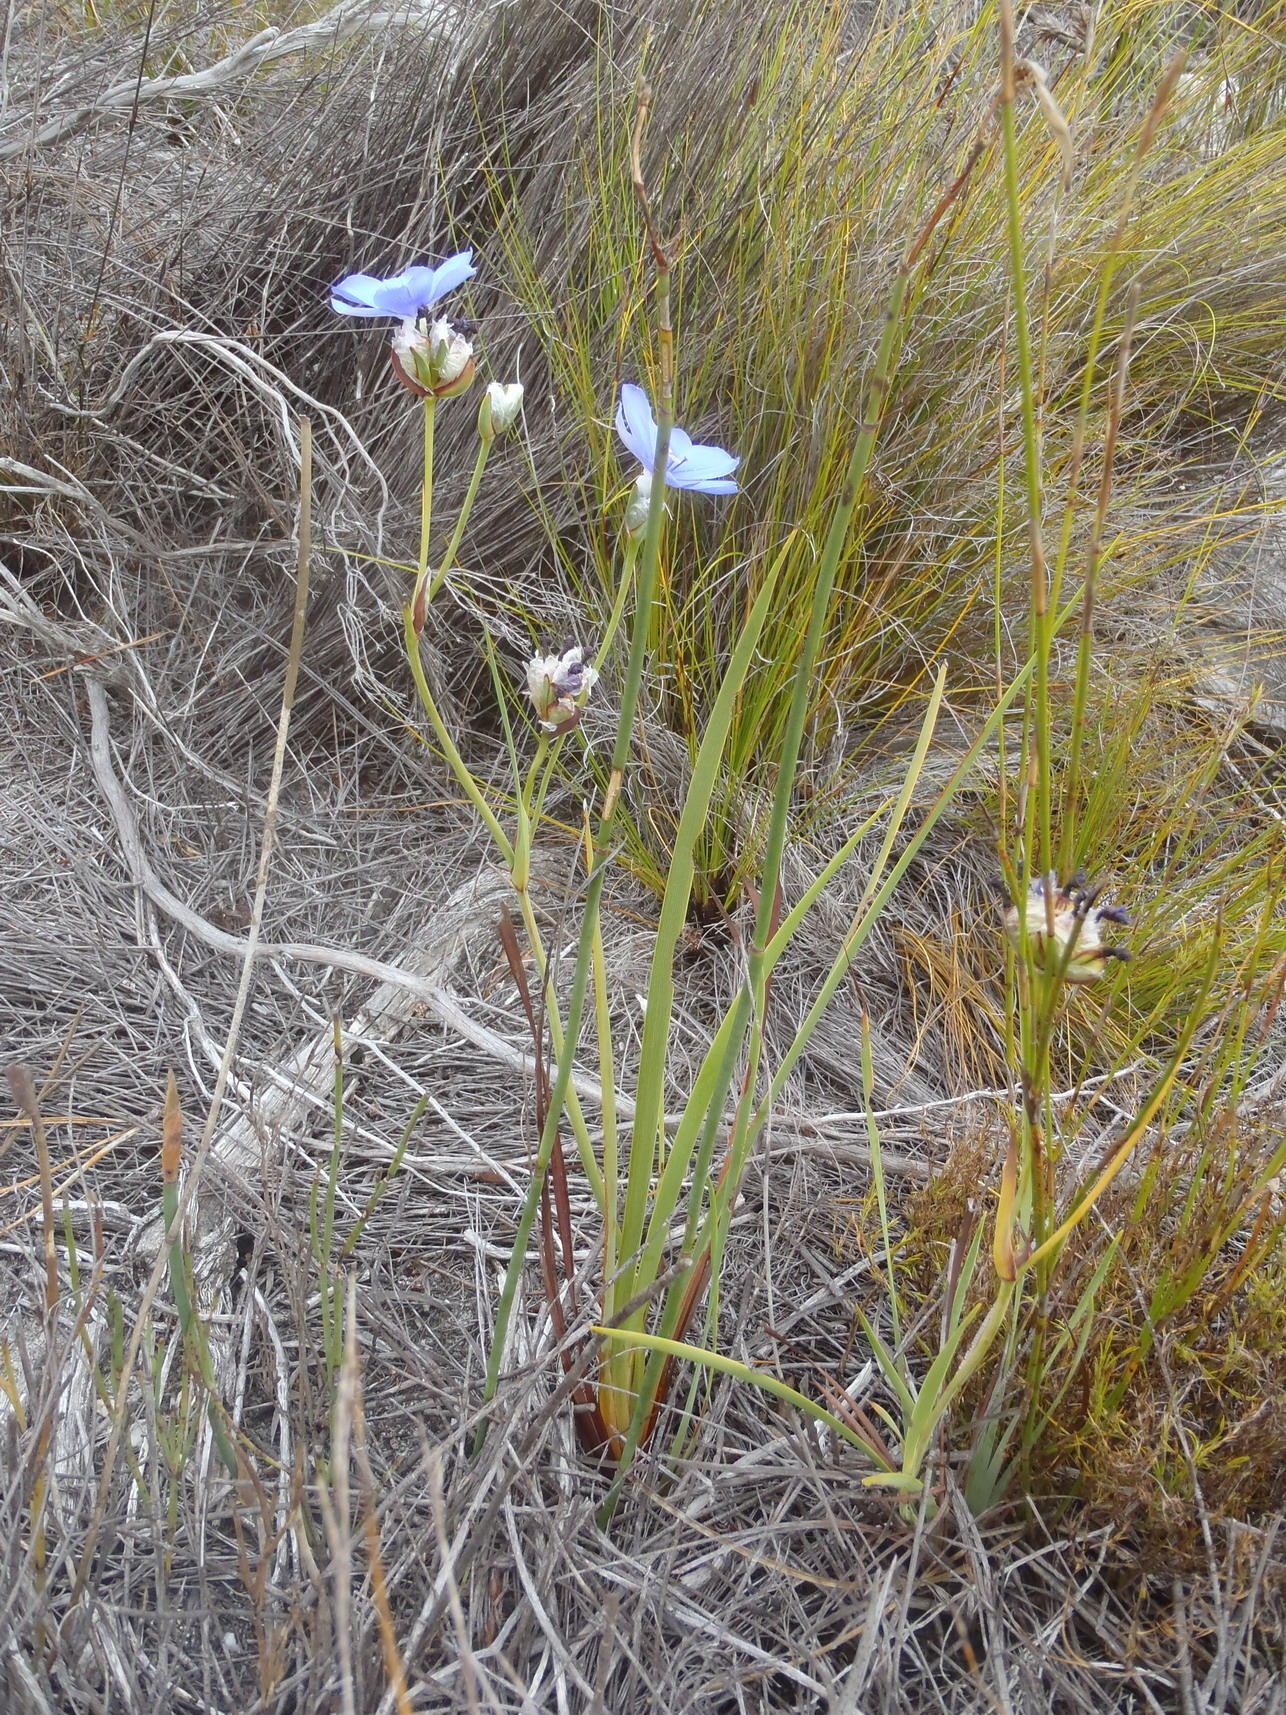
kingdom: Plantae
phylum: Tracheophyta
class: Liliopsida
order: Asparagales
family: Iridaceae
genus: Aristea
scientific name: Aristea oligocephala
